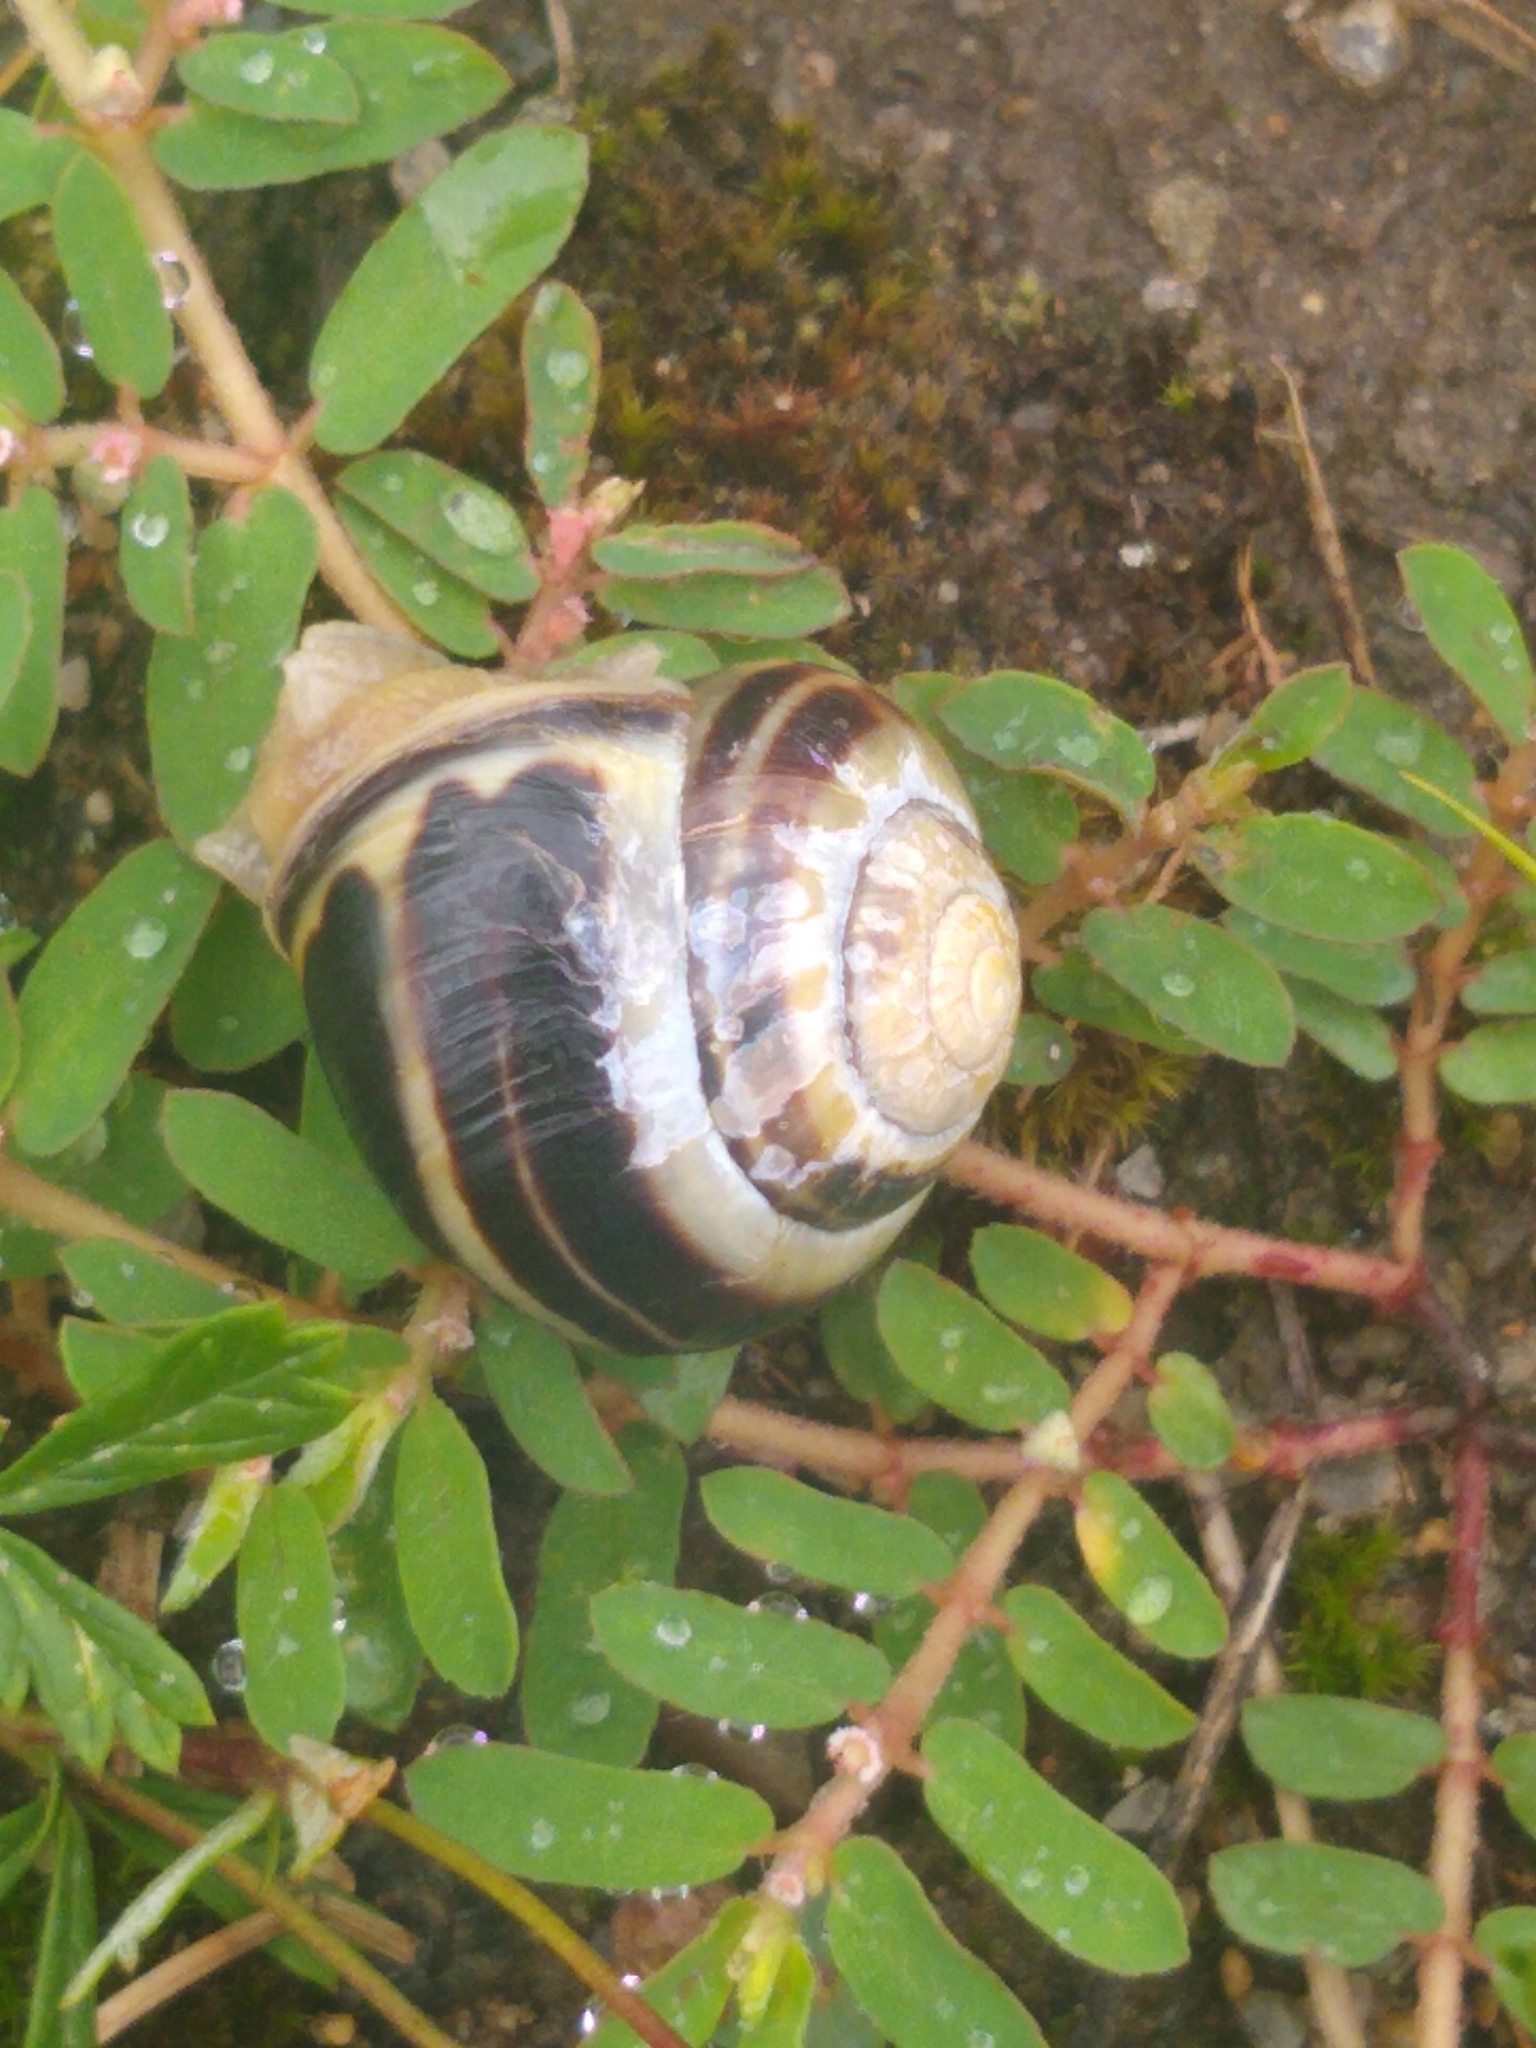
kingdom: Animalia
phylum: Mollusca
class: Gastropoda
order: Stylommatophora
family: Helicidae
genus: Cepaea
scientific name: Cepaea nemoralis
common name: Grovesnail
